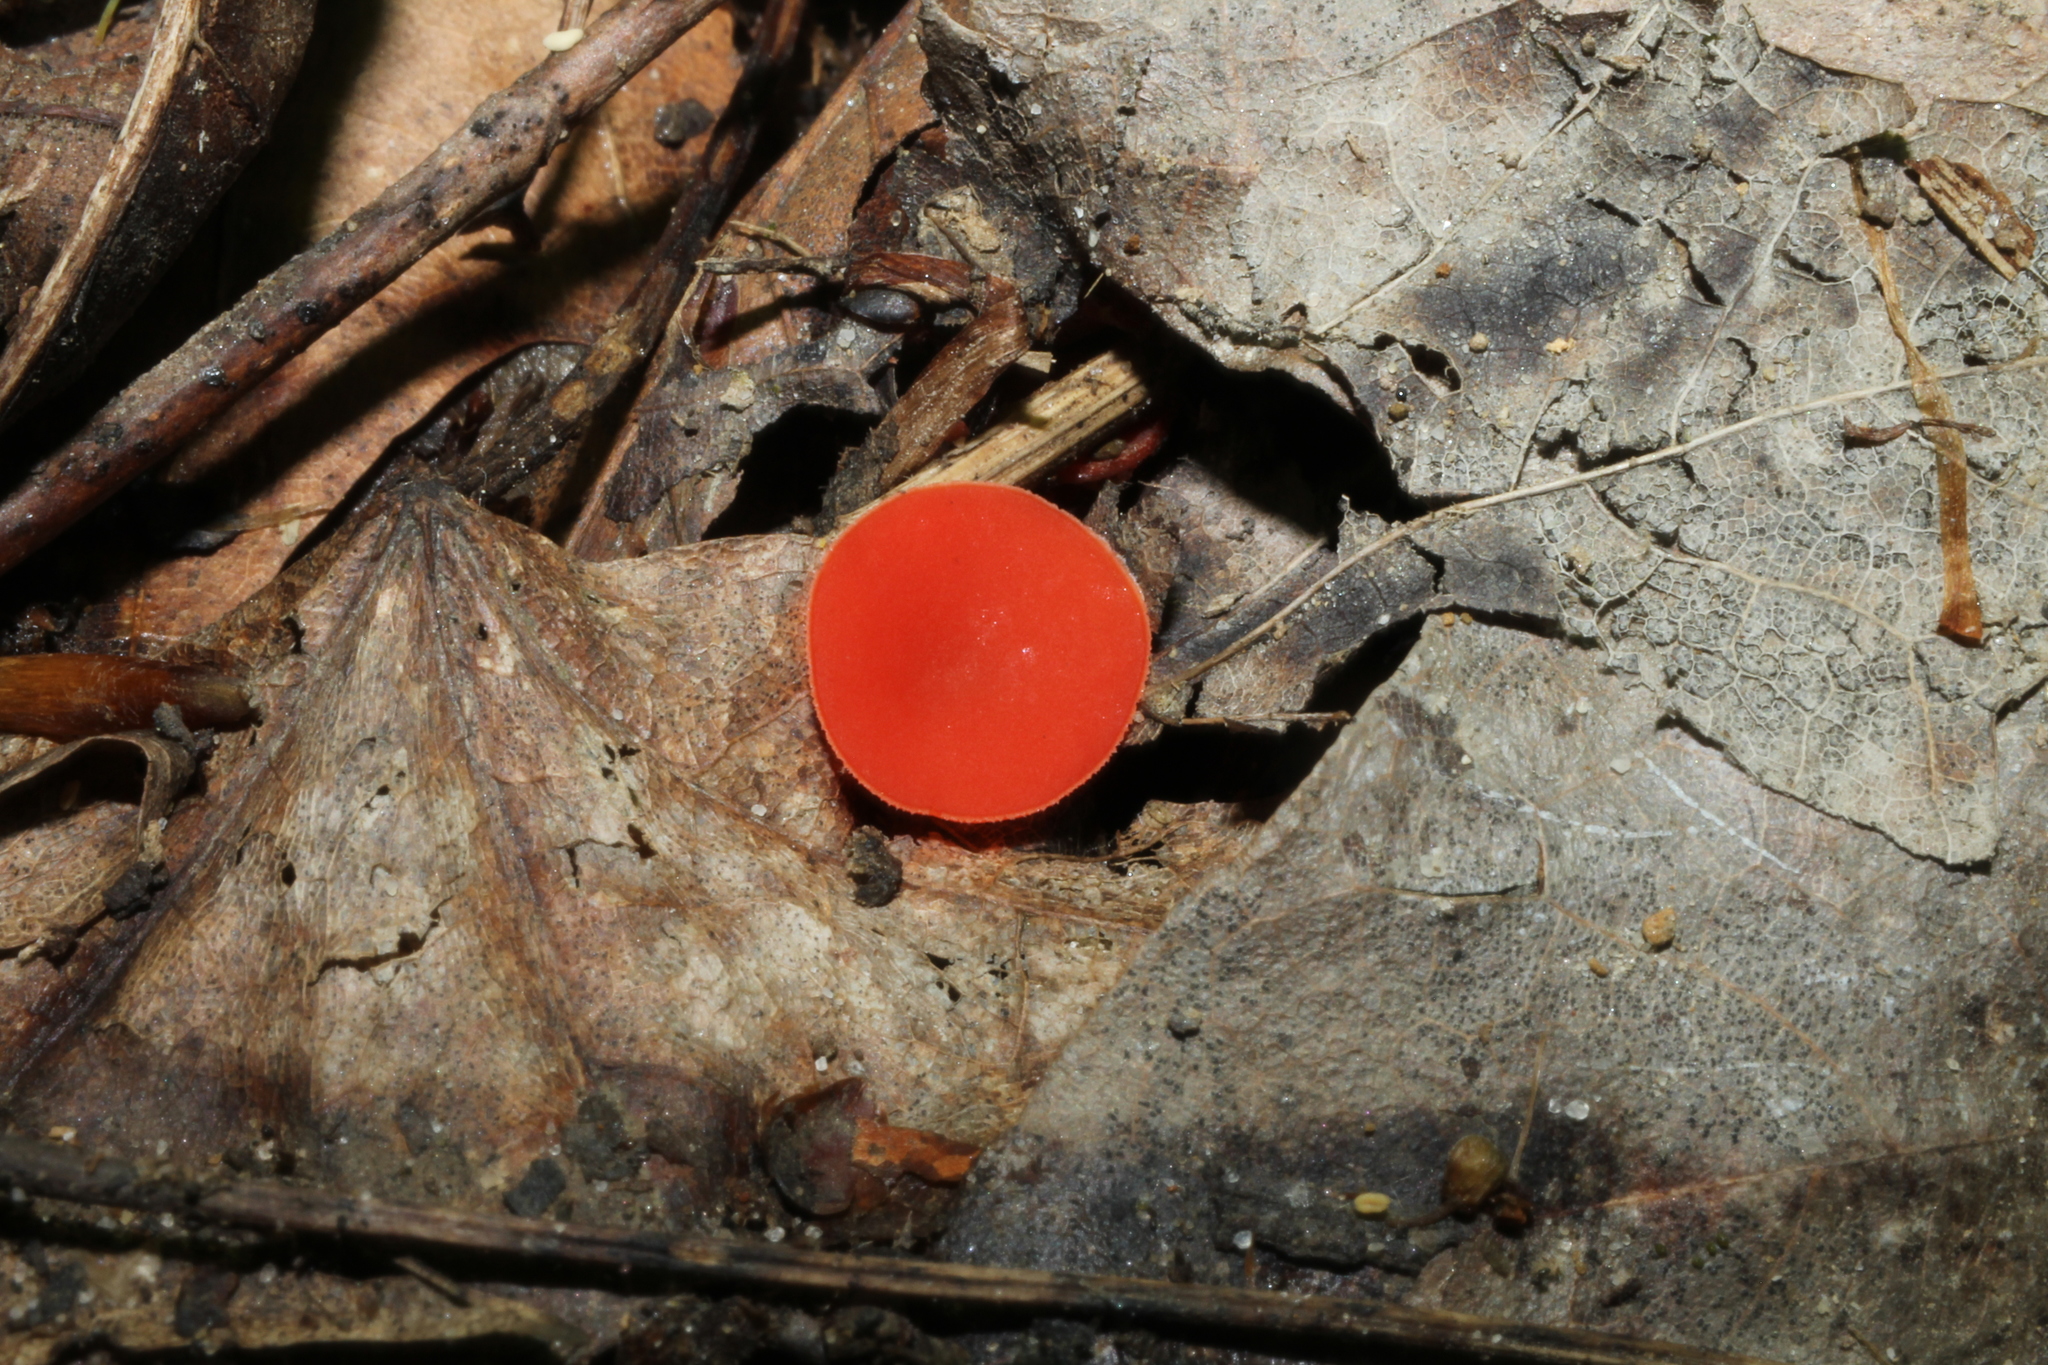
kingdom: Fungi
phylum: Ascomycota
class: Pezizomycetes
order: Pezizales
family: Sarcoscyphaceae
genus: Sarcoscypha
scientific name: Sarcoscypha occidentalis
